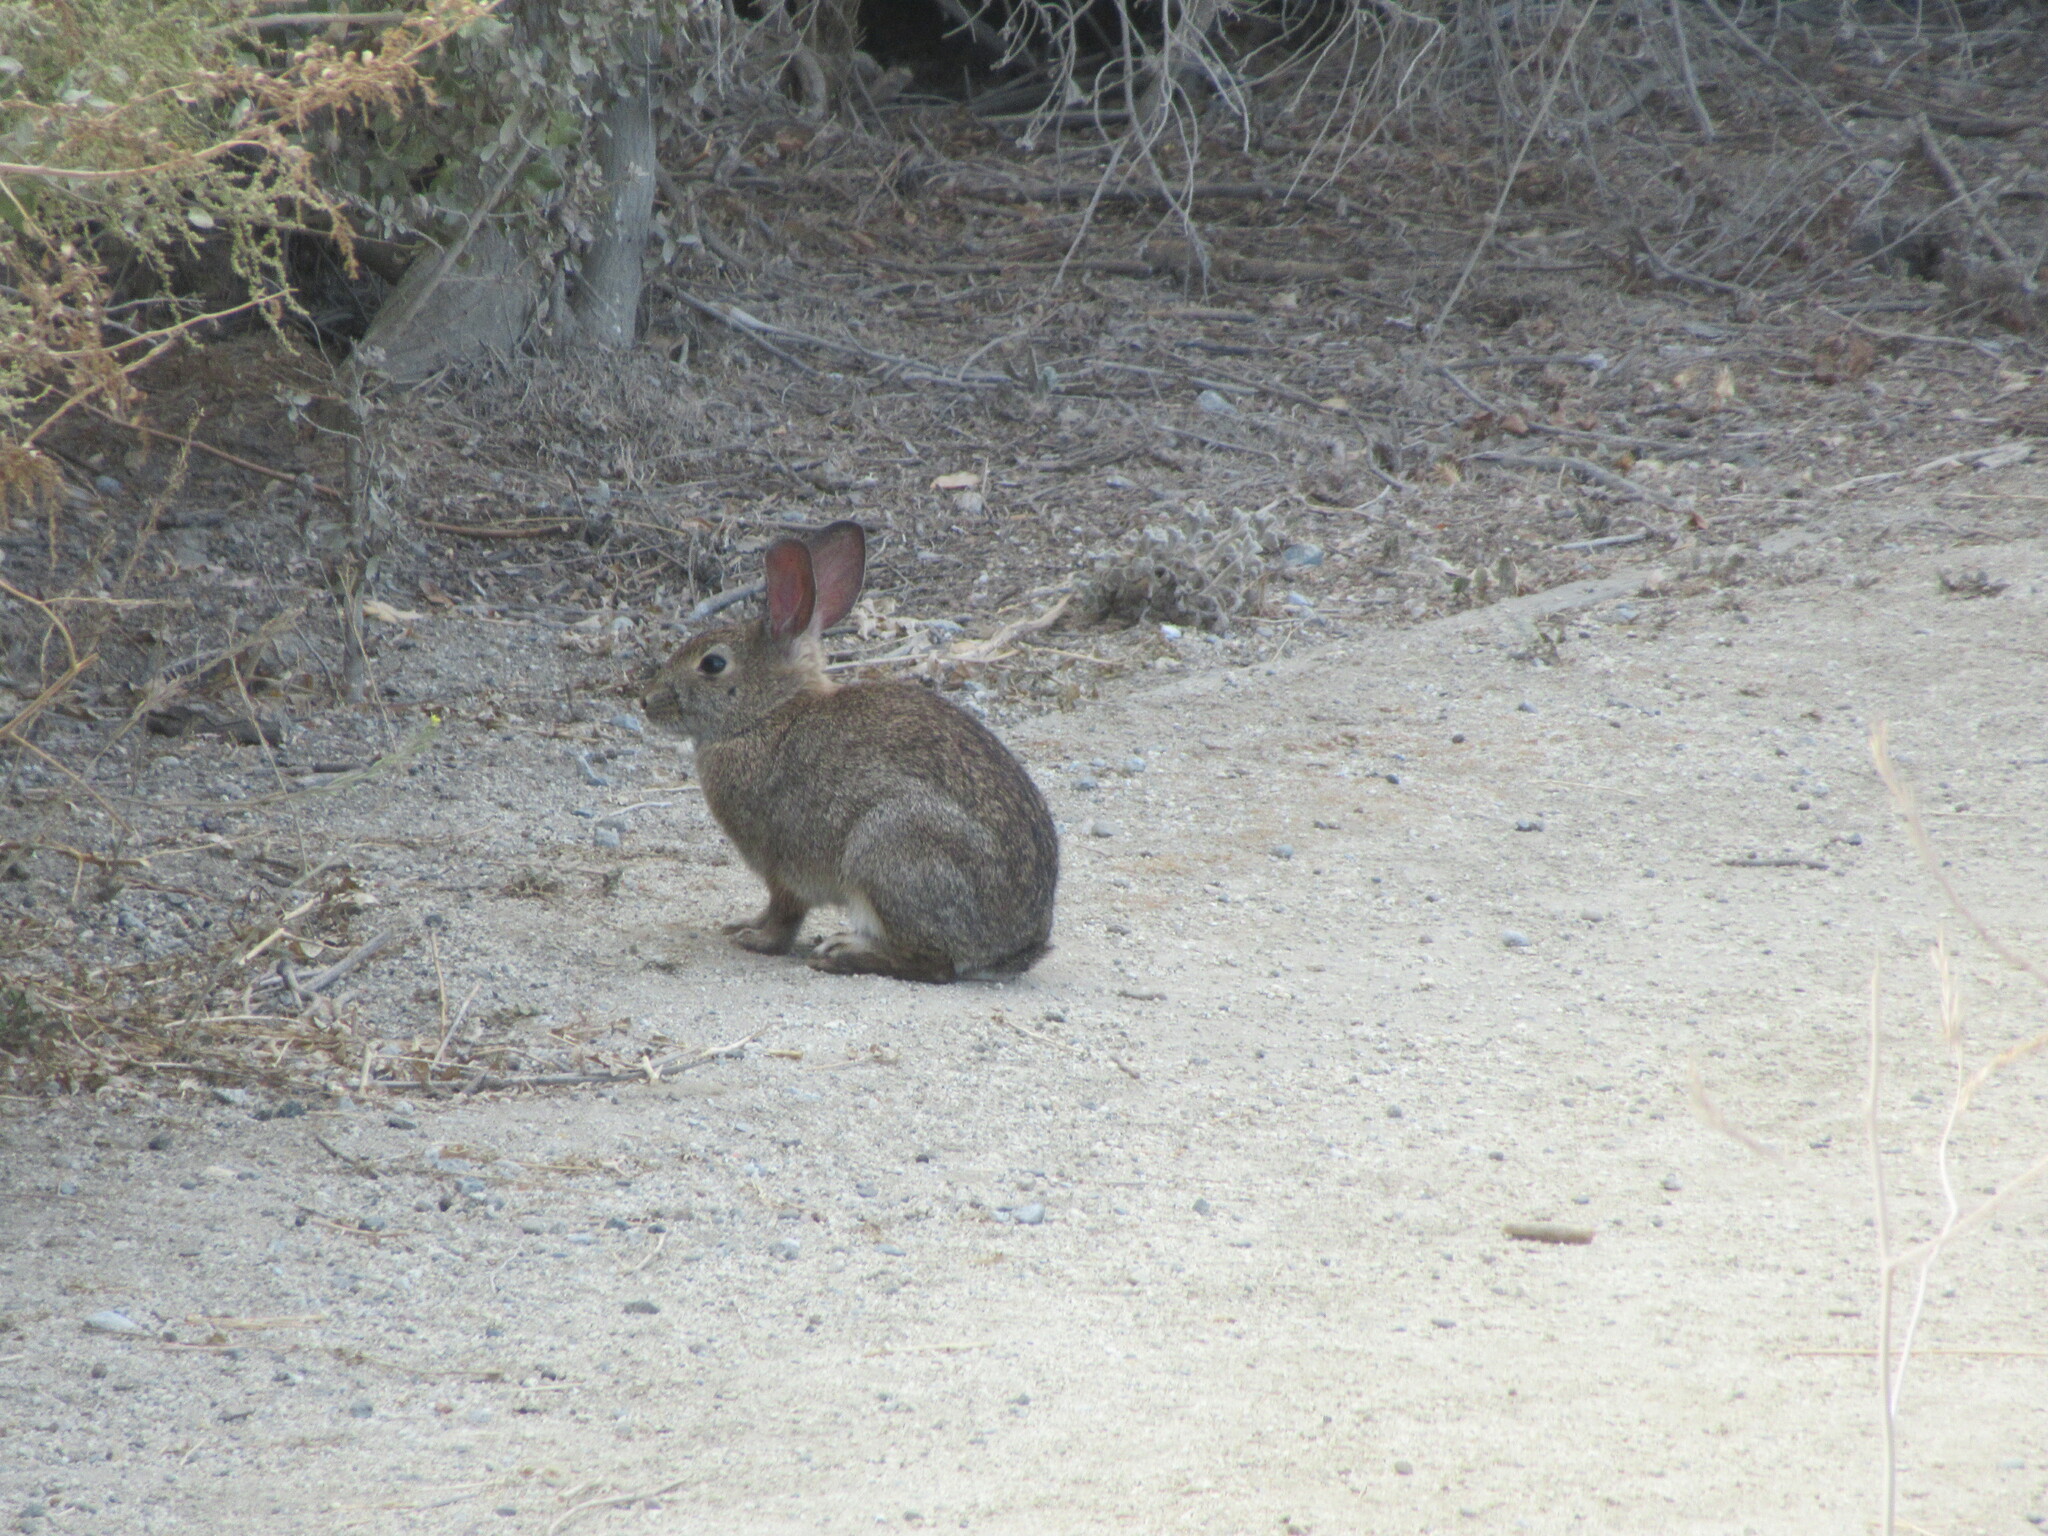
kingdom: Animalia
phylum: Chordata
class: Mammalia
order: Lagomorpha
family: Leporidae
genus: Sylvilagus
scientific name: Sylvilagus bachmani
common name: Brush rabbit
